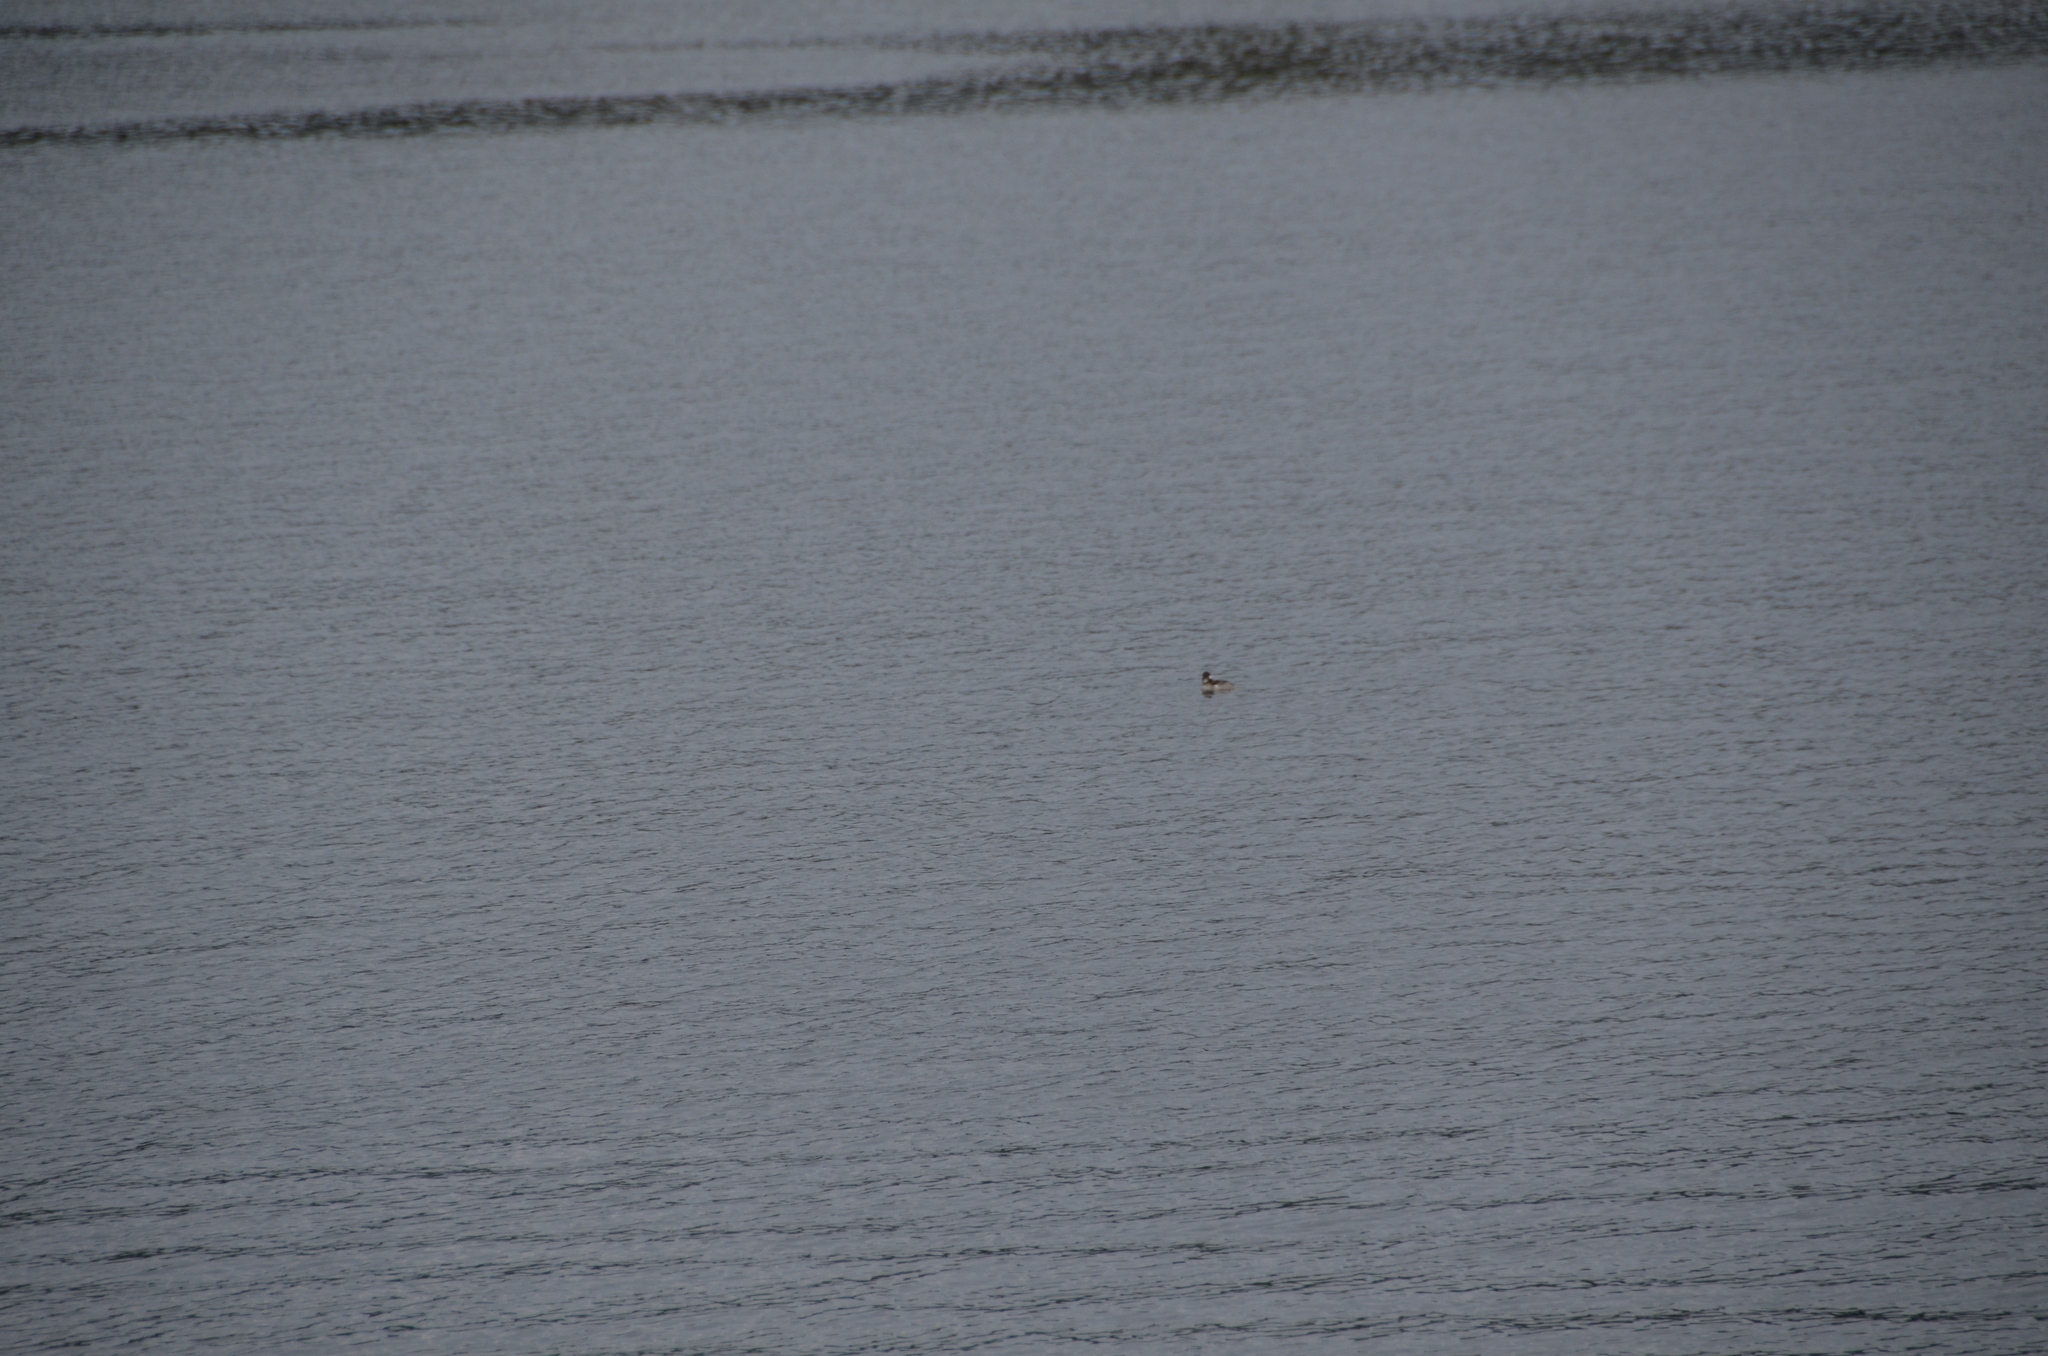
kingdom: Animalia
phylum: Chordata
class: Aves
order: Anseriformes
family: Anatidae
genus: Bucephala
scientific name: Bucephala albeola
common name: Bufflehead
